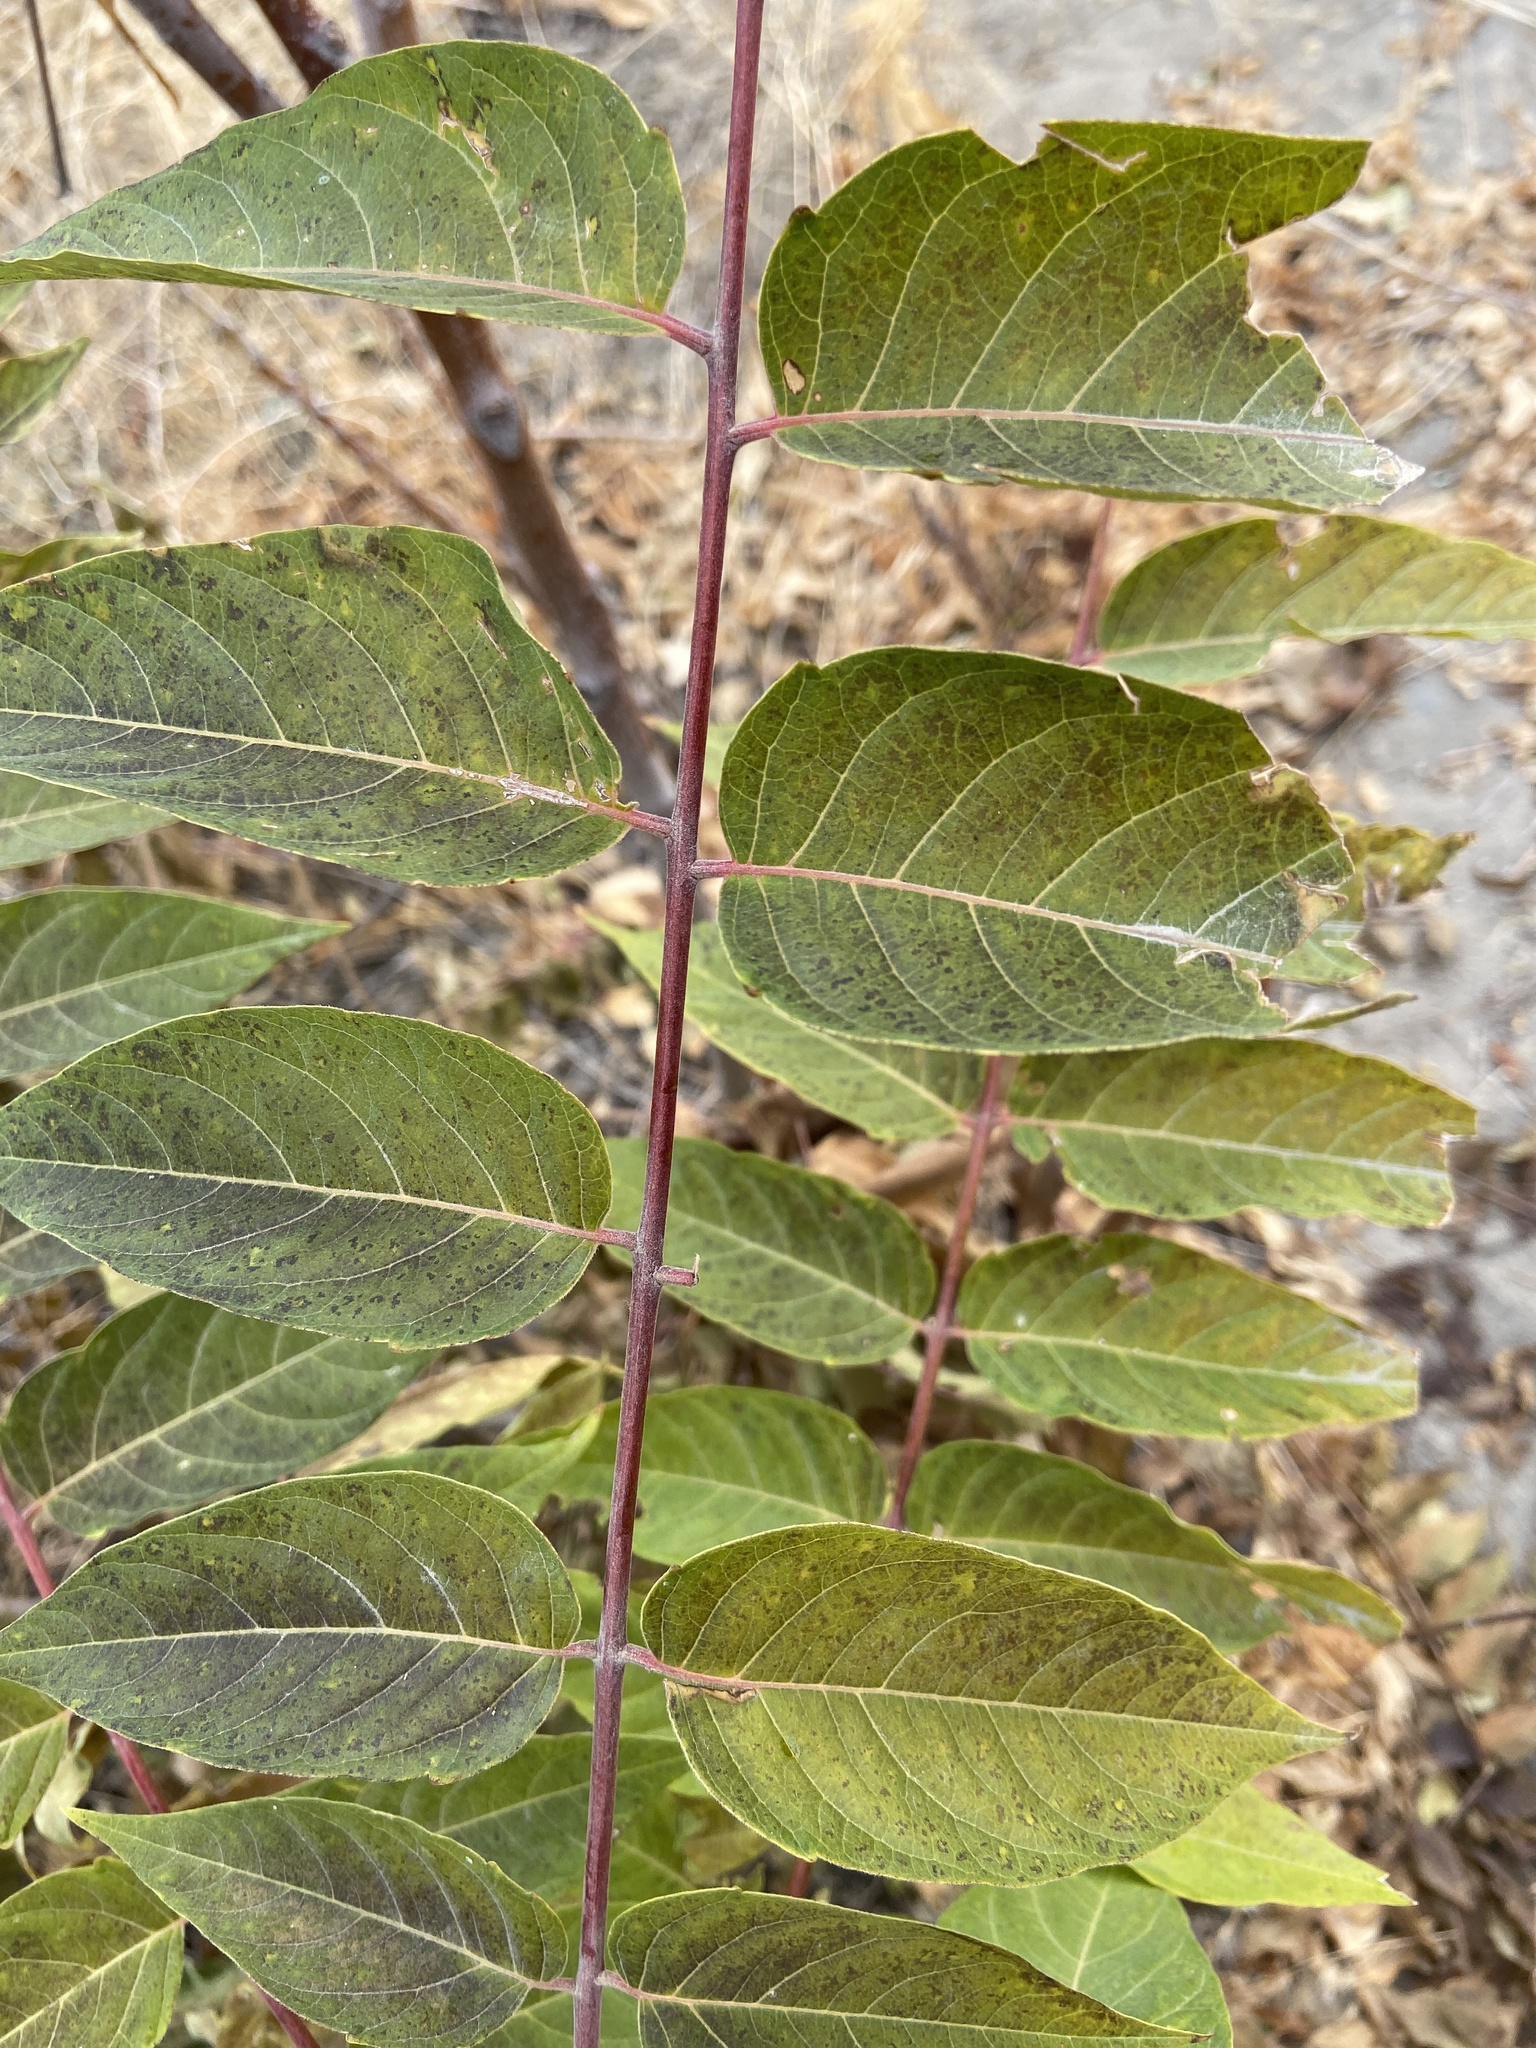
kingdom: Plantae
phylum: Tracheophyta
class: Magnoliopsida
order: Sapindales
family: Simaroubaceae
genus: Ailanthus
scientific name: Ailanthus altissima
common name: Tree-of-heaven
